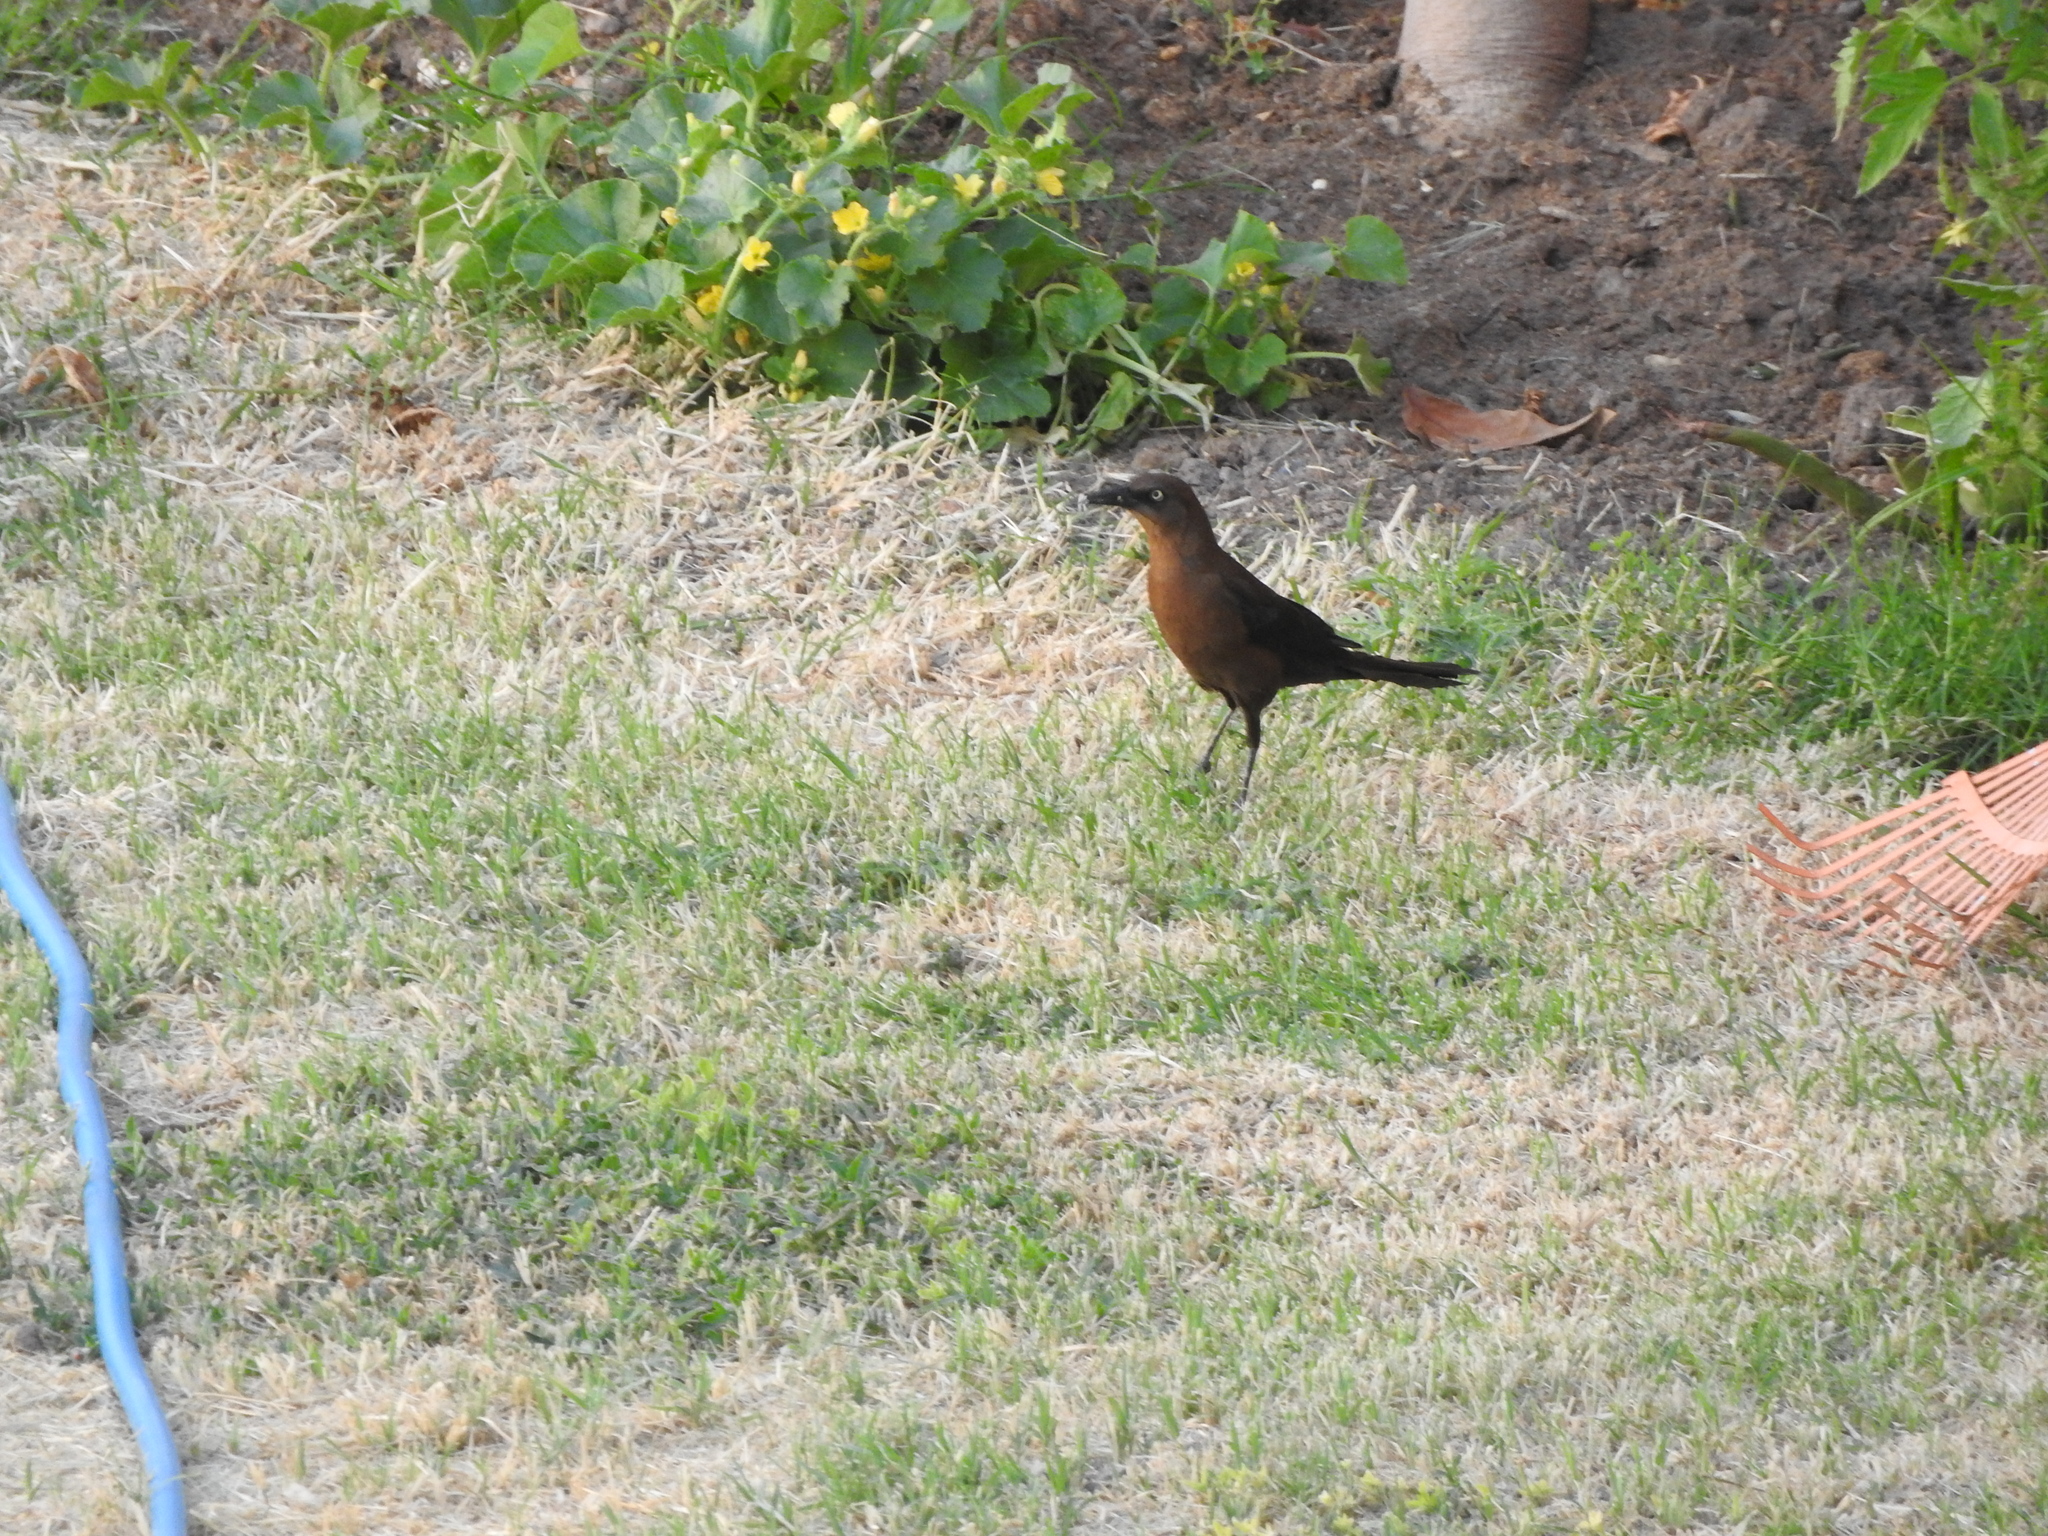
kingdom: Animalia
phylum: Chordata
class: Aves
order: Passeriformes
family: Icteridae
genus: Quiscalus
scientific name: Quiscalus mexicanus
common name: Great-tailed grackle
